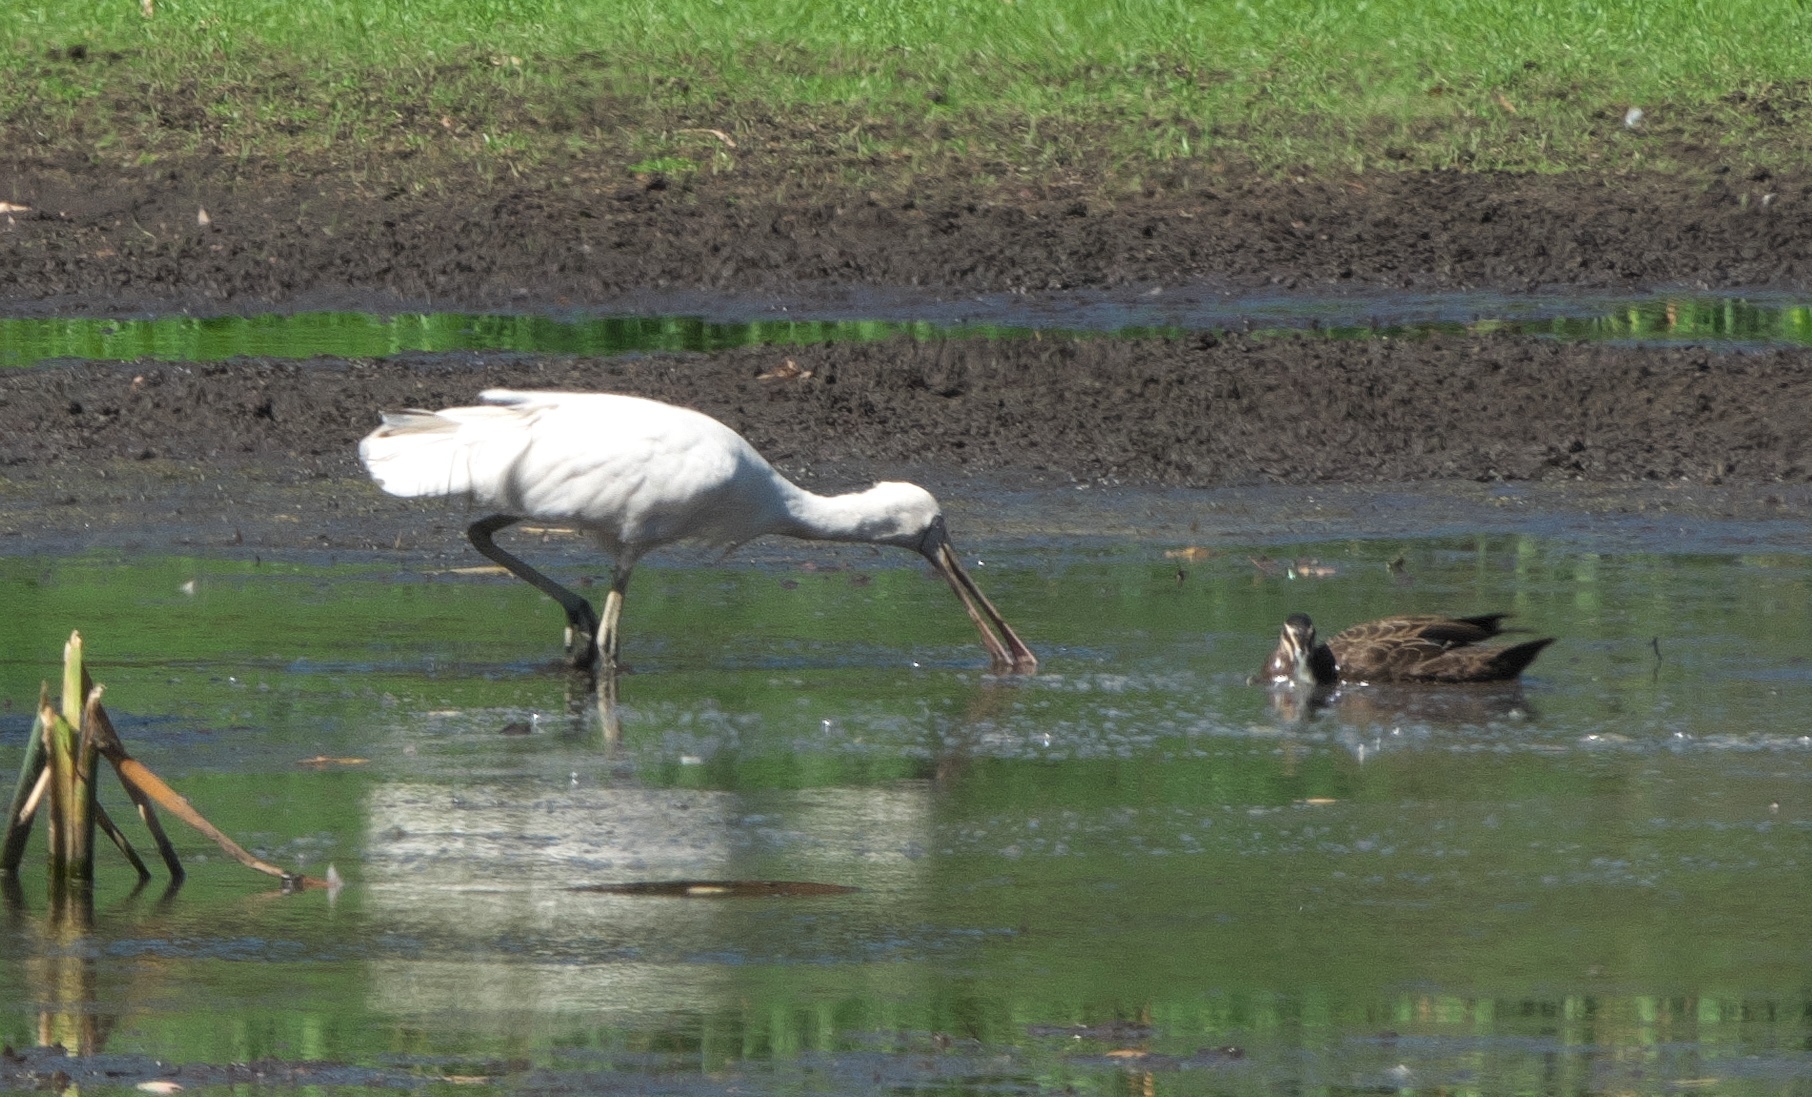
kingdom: Animalia
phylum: Chordata
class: Aves
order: Pelecaniformes
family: Threskiornithidae
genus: Platalea
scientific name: Platalea flavipes
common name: Yellow-billed spoonbill
